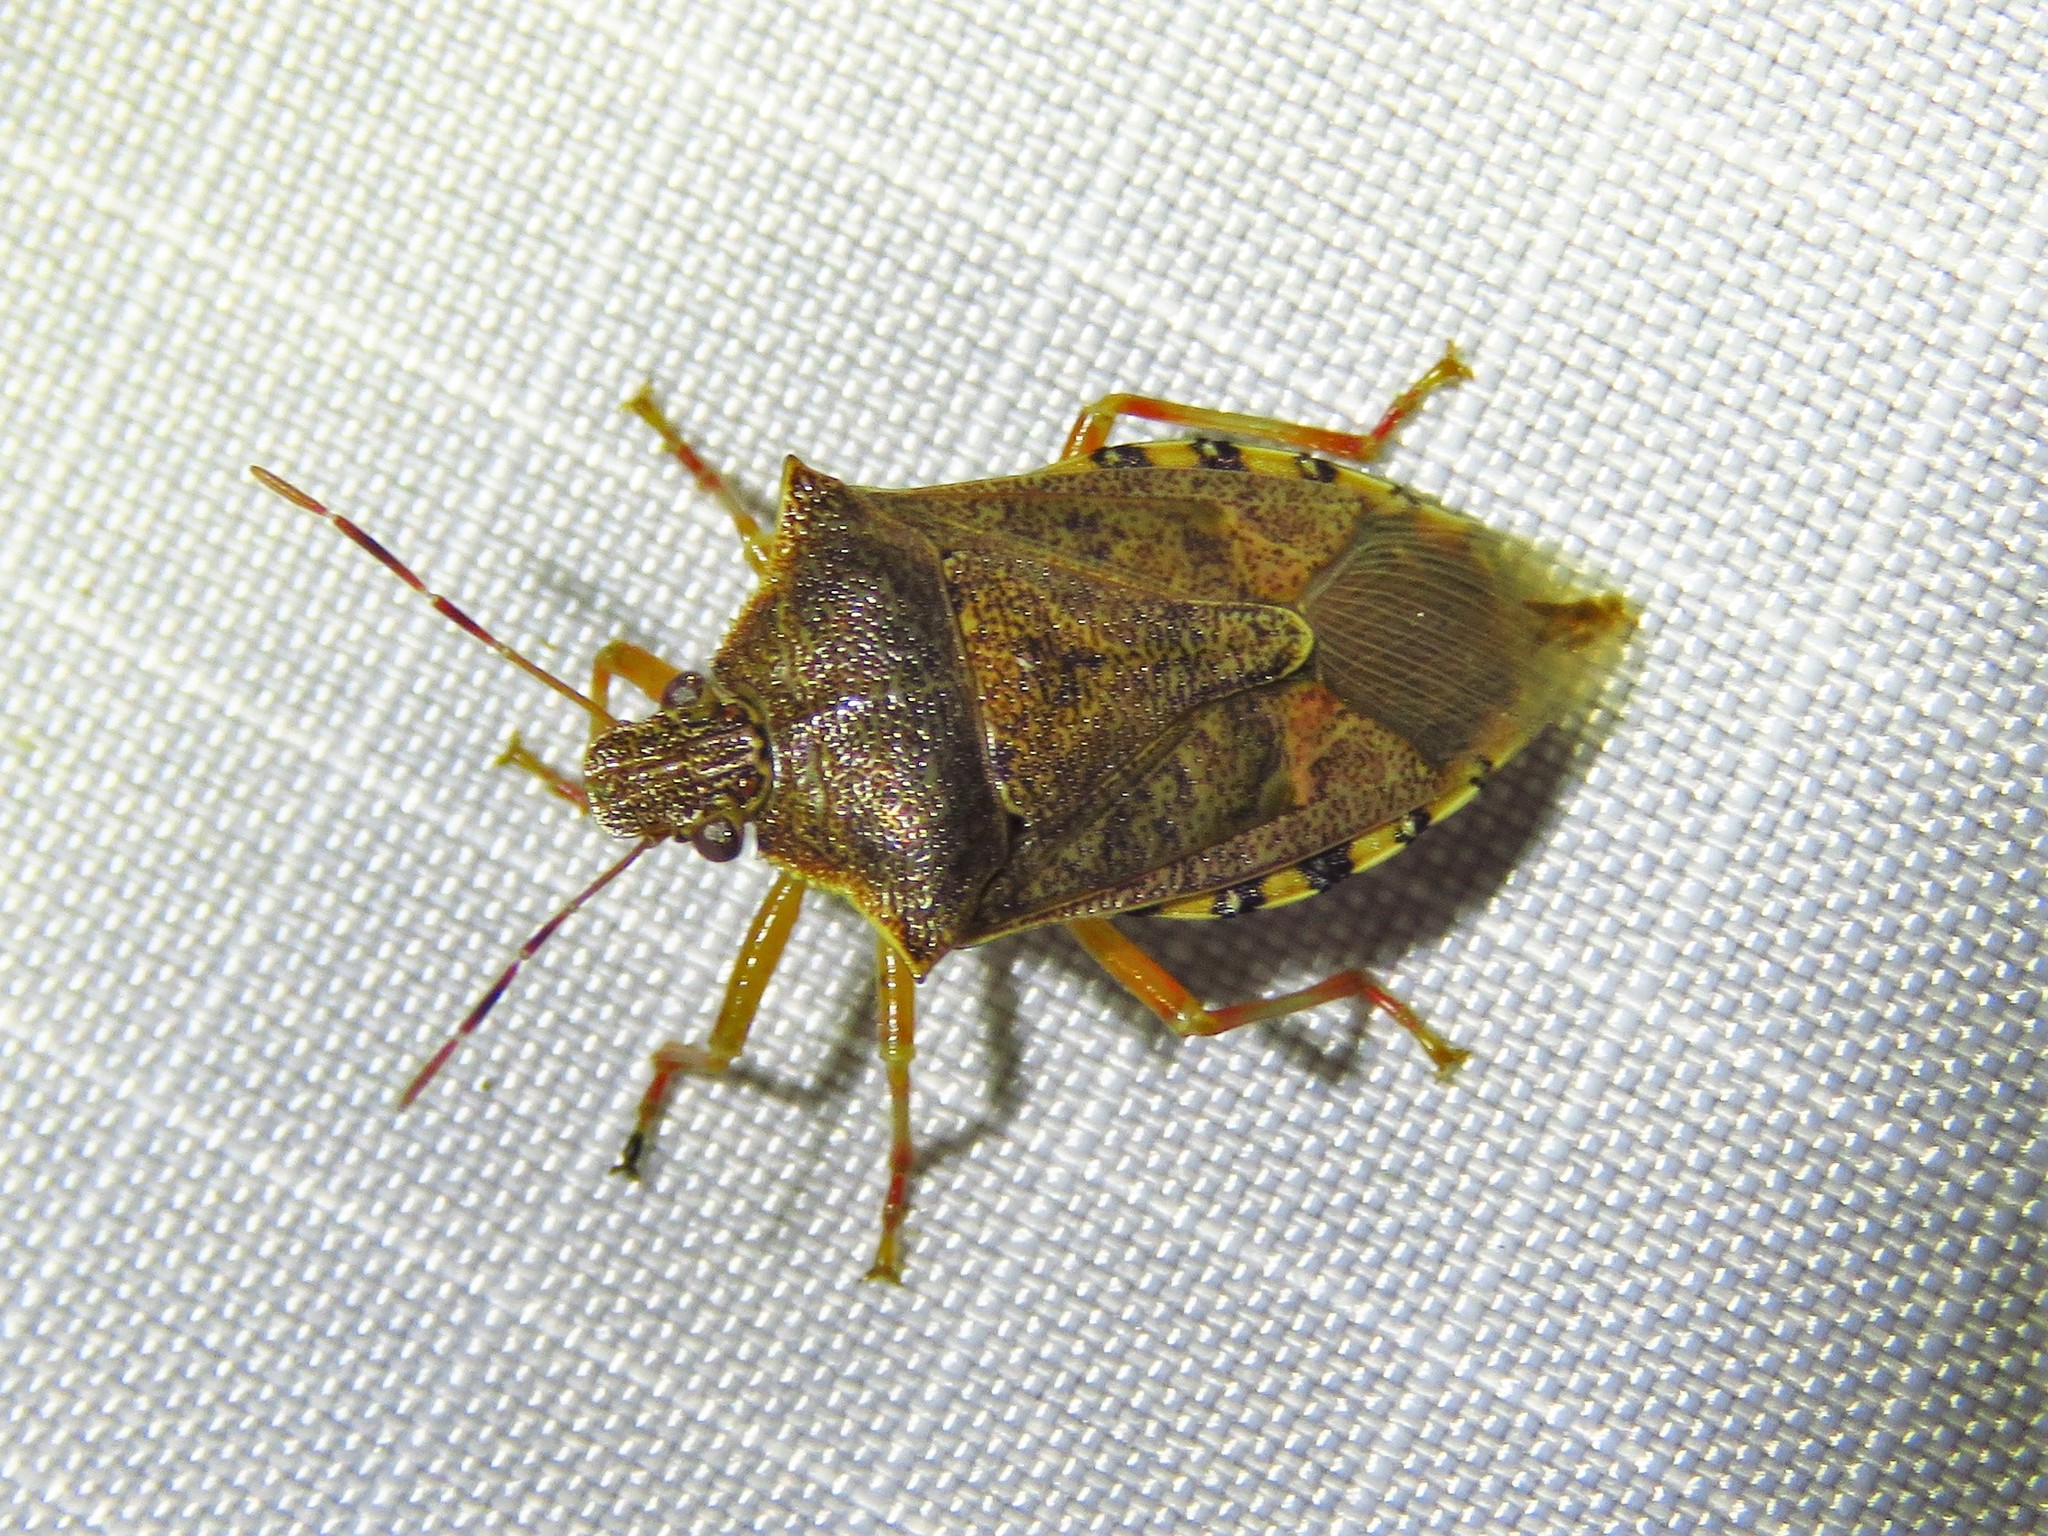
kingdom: Animalia
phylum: Arthropoda
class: Insecta
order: Hemiptera
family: Pentatomidae
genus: Podisus
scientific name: Podisus maculiventris
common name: Spined soldier bug
